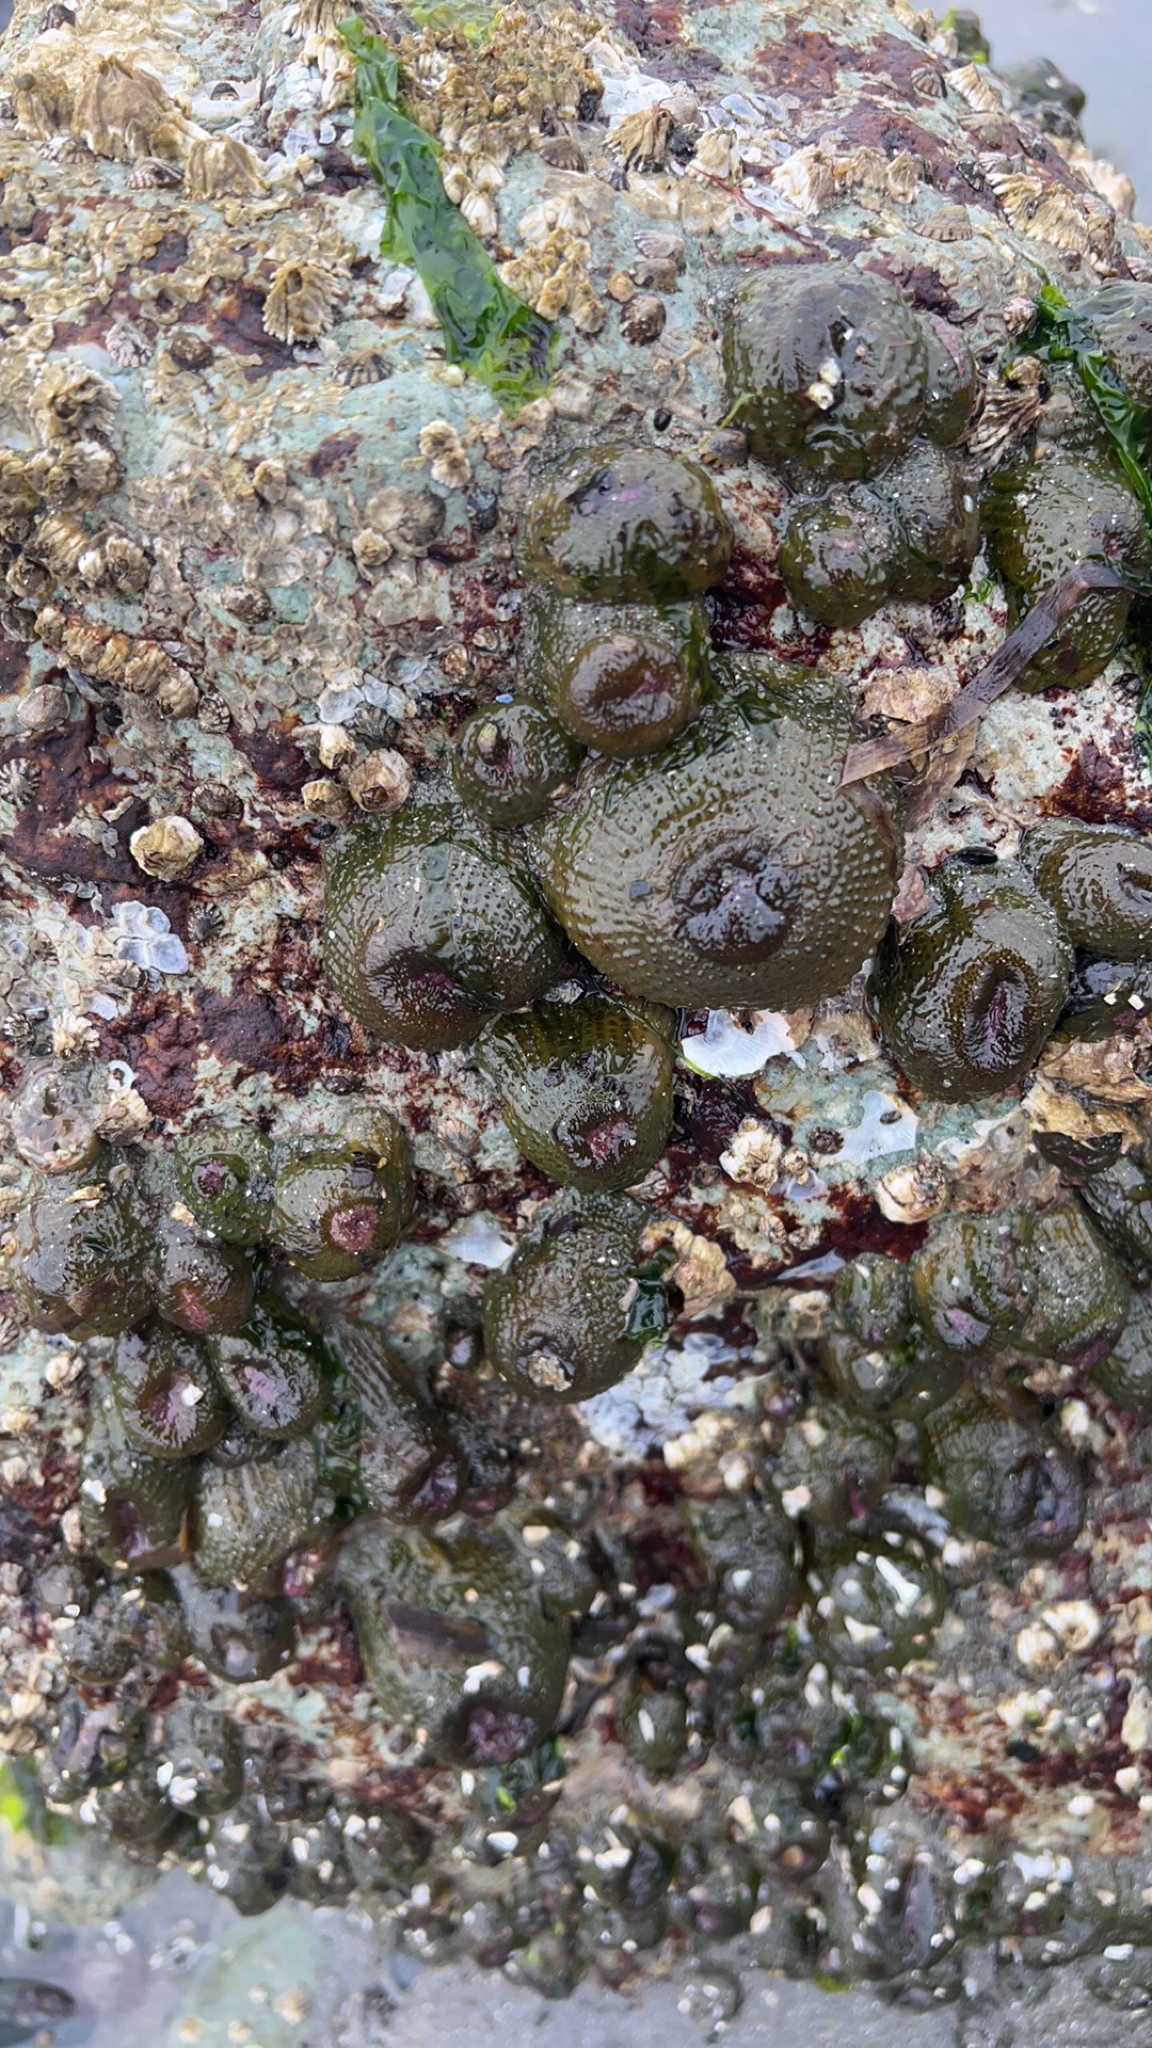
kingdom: Animalia
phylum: Cnidaria
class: Anthozoa
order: Actiniaria
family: Actiniidae
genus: Anthopleura
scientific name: Anthopleura elegantissima
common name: Clonal anemone
